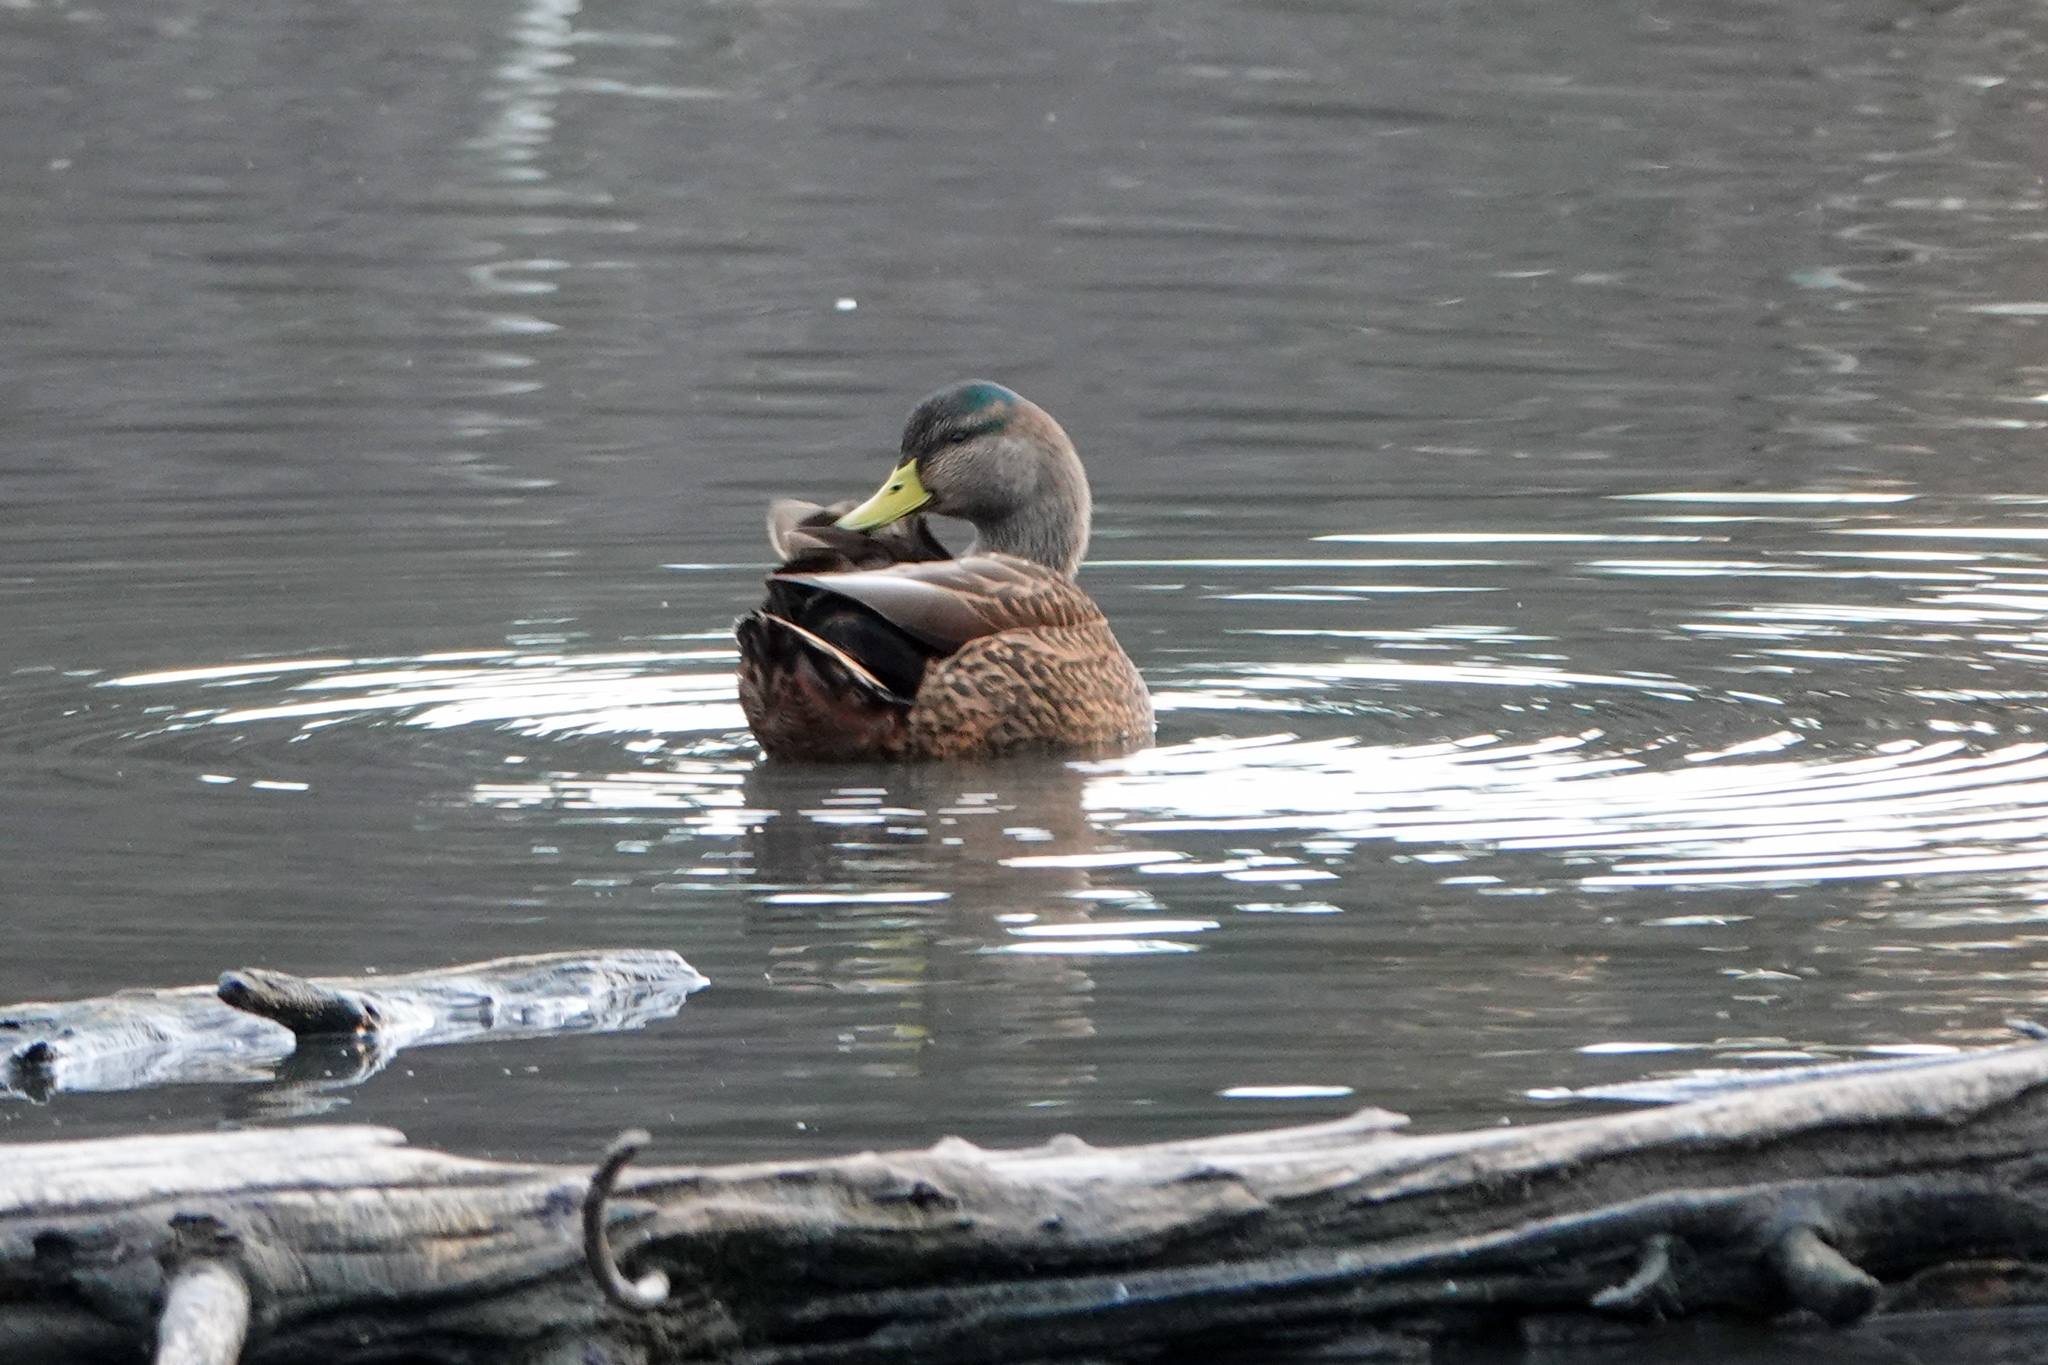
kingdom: Animalia
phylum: Chordata
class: Aves
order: Anseriformes
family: Anatidae
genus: Anas
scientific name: Anas
